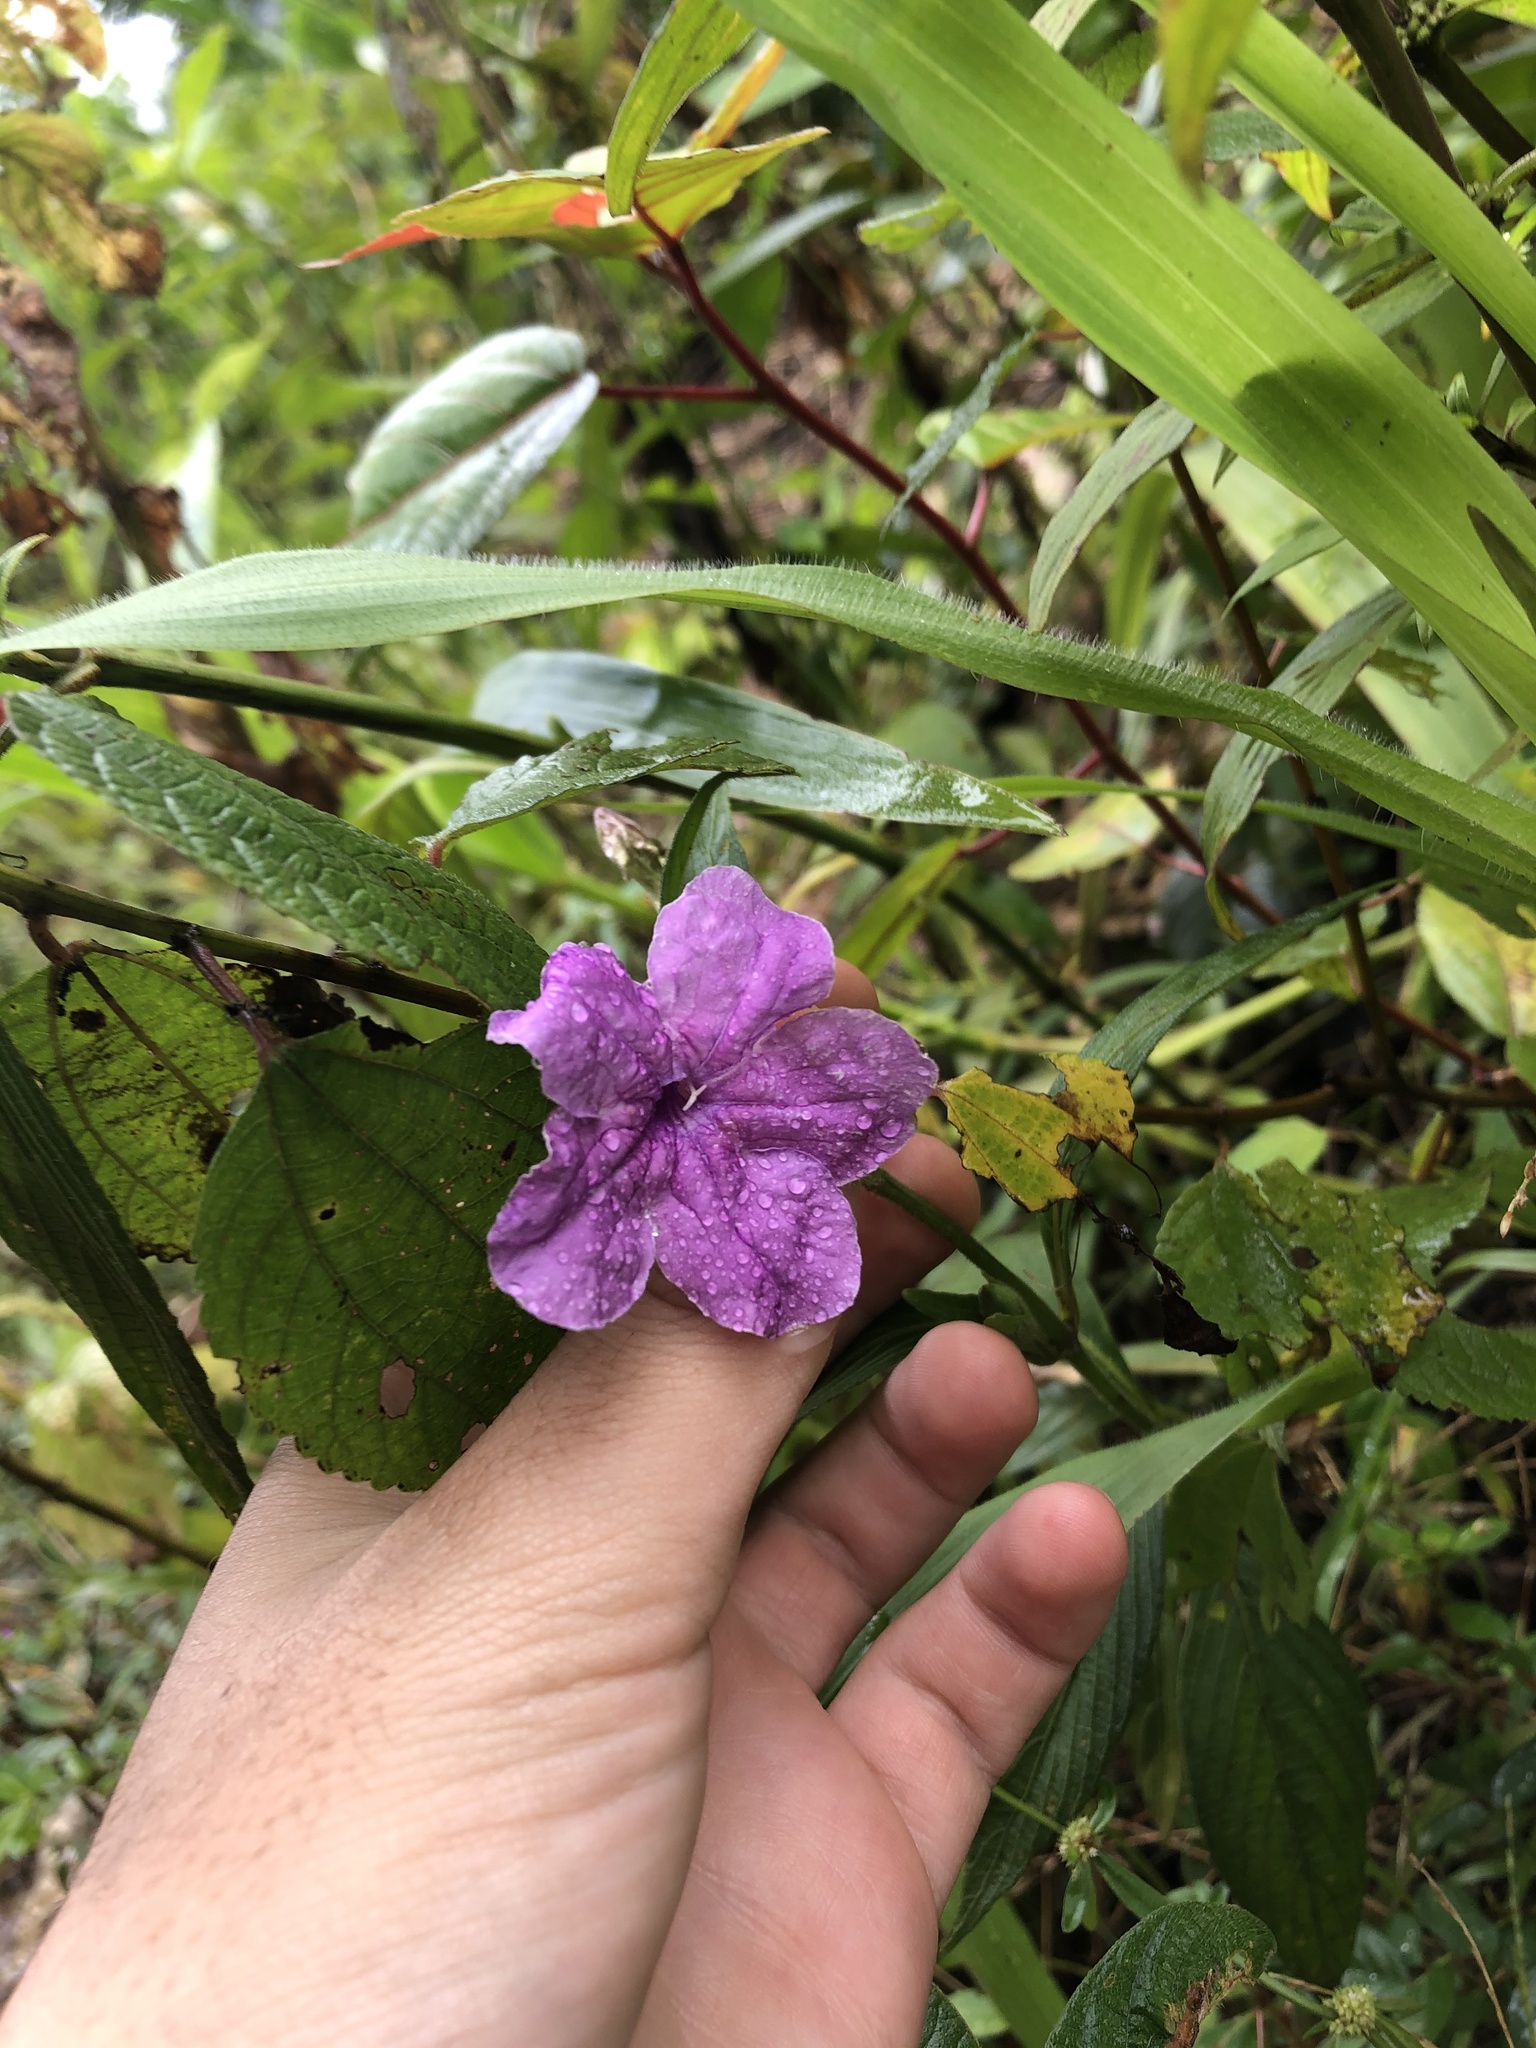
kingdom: Plantae
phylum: Tracheophyta
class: Magnoliopsida
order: Lamiales
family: Acanthaceae
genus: Ruellia
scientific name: Ruellia jussieuoides
